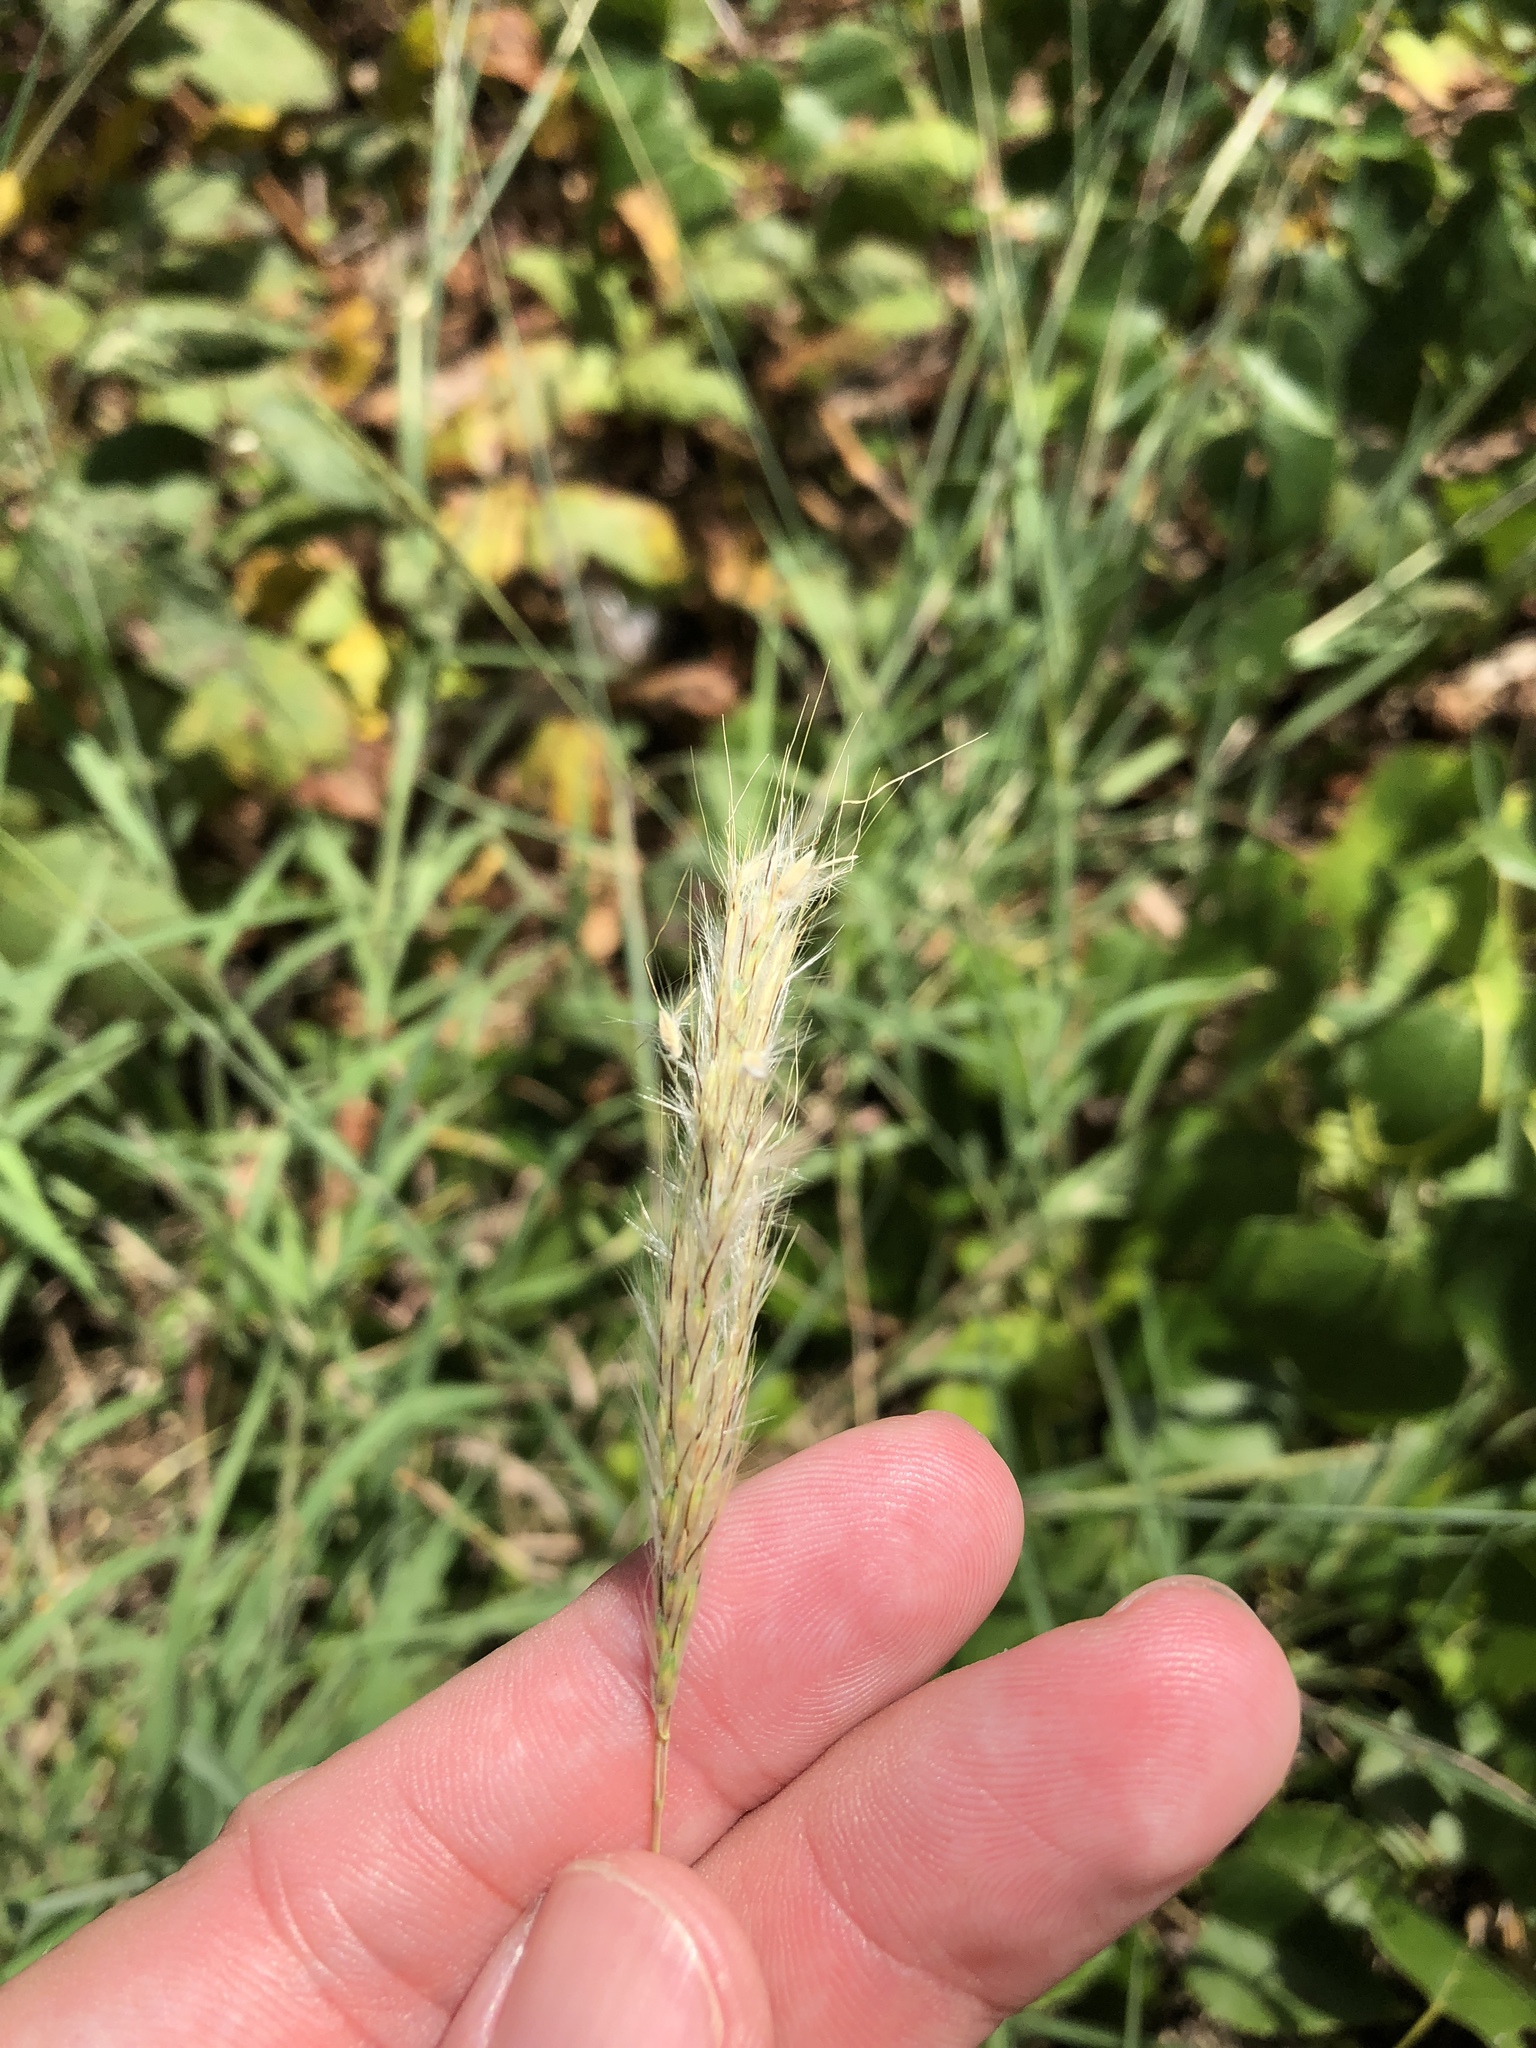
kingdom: Plantae
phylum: Tracheophyta
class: Liliopsida
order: Poales
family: Poaceae
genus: Bothriochloa
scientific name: Bothriochloa torreyana
